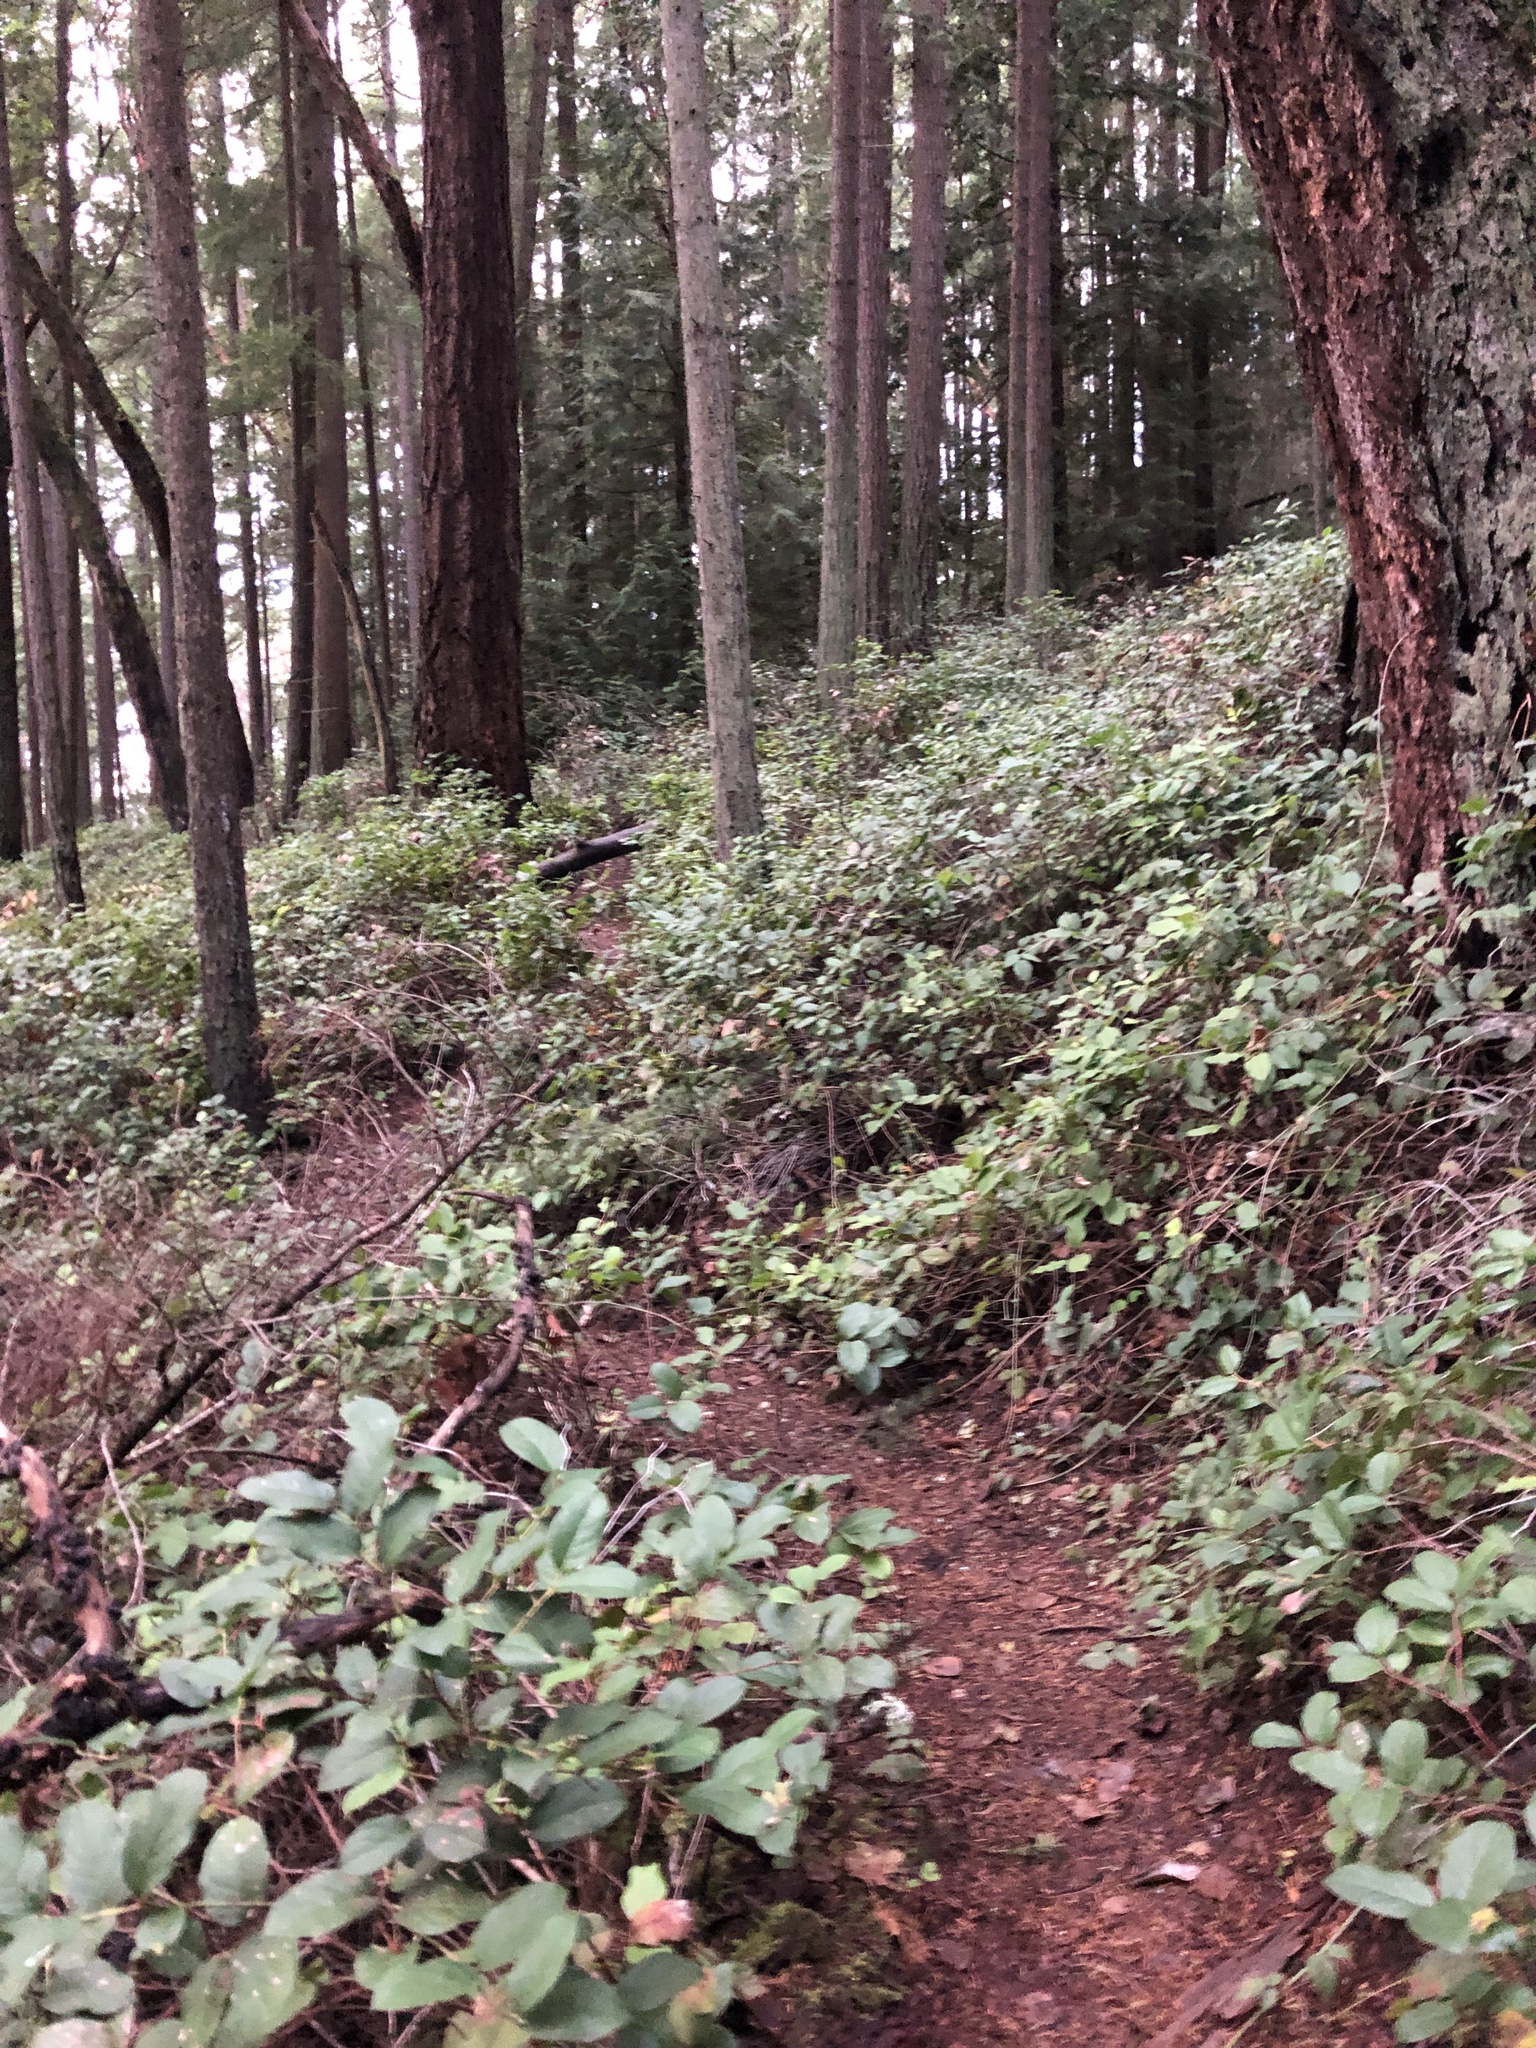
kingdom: Plantae
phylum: Tracheophyta
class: Magnoliopsida
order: Ericales
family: Ericaceae
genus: Gaultheria
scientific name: Gaultheria shallon
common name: Shallon
